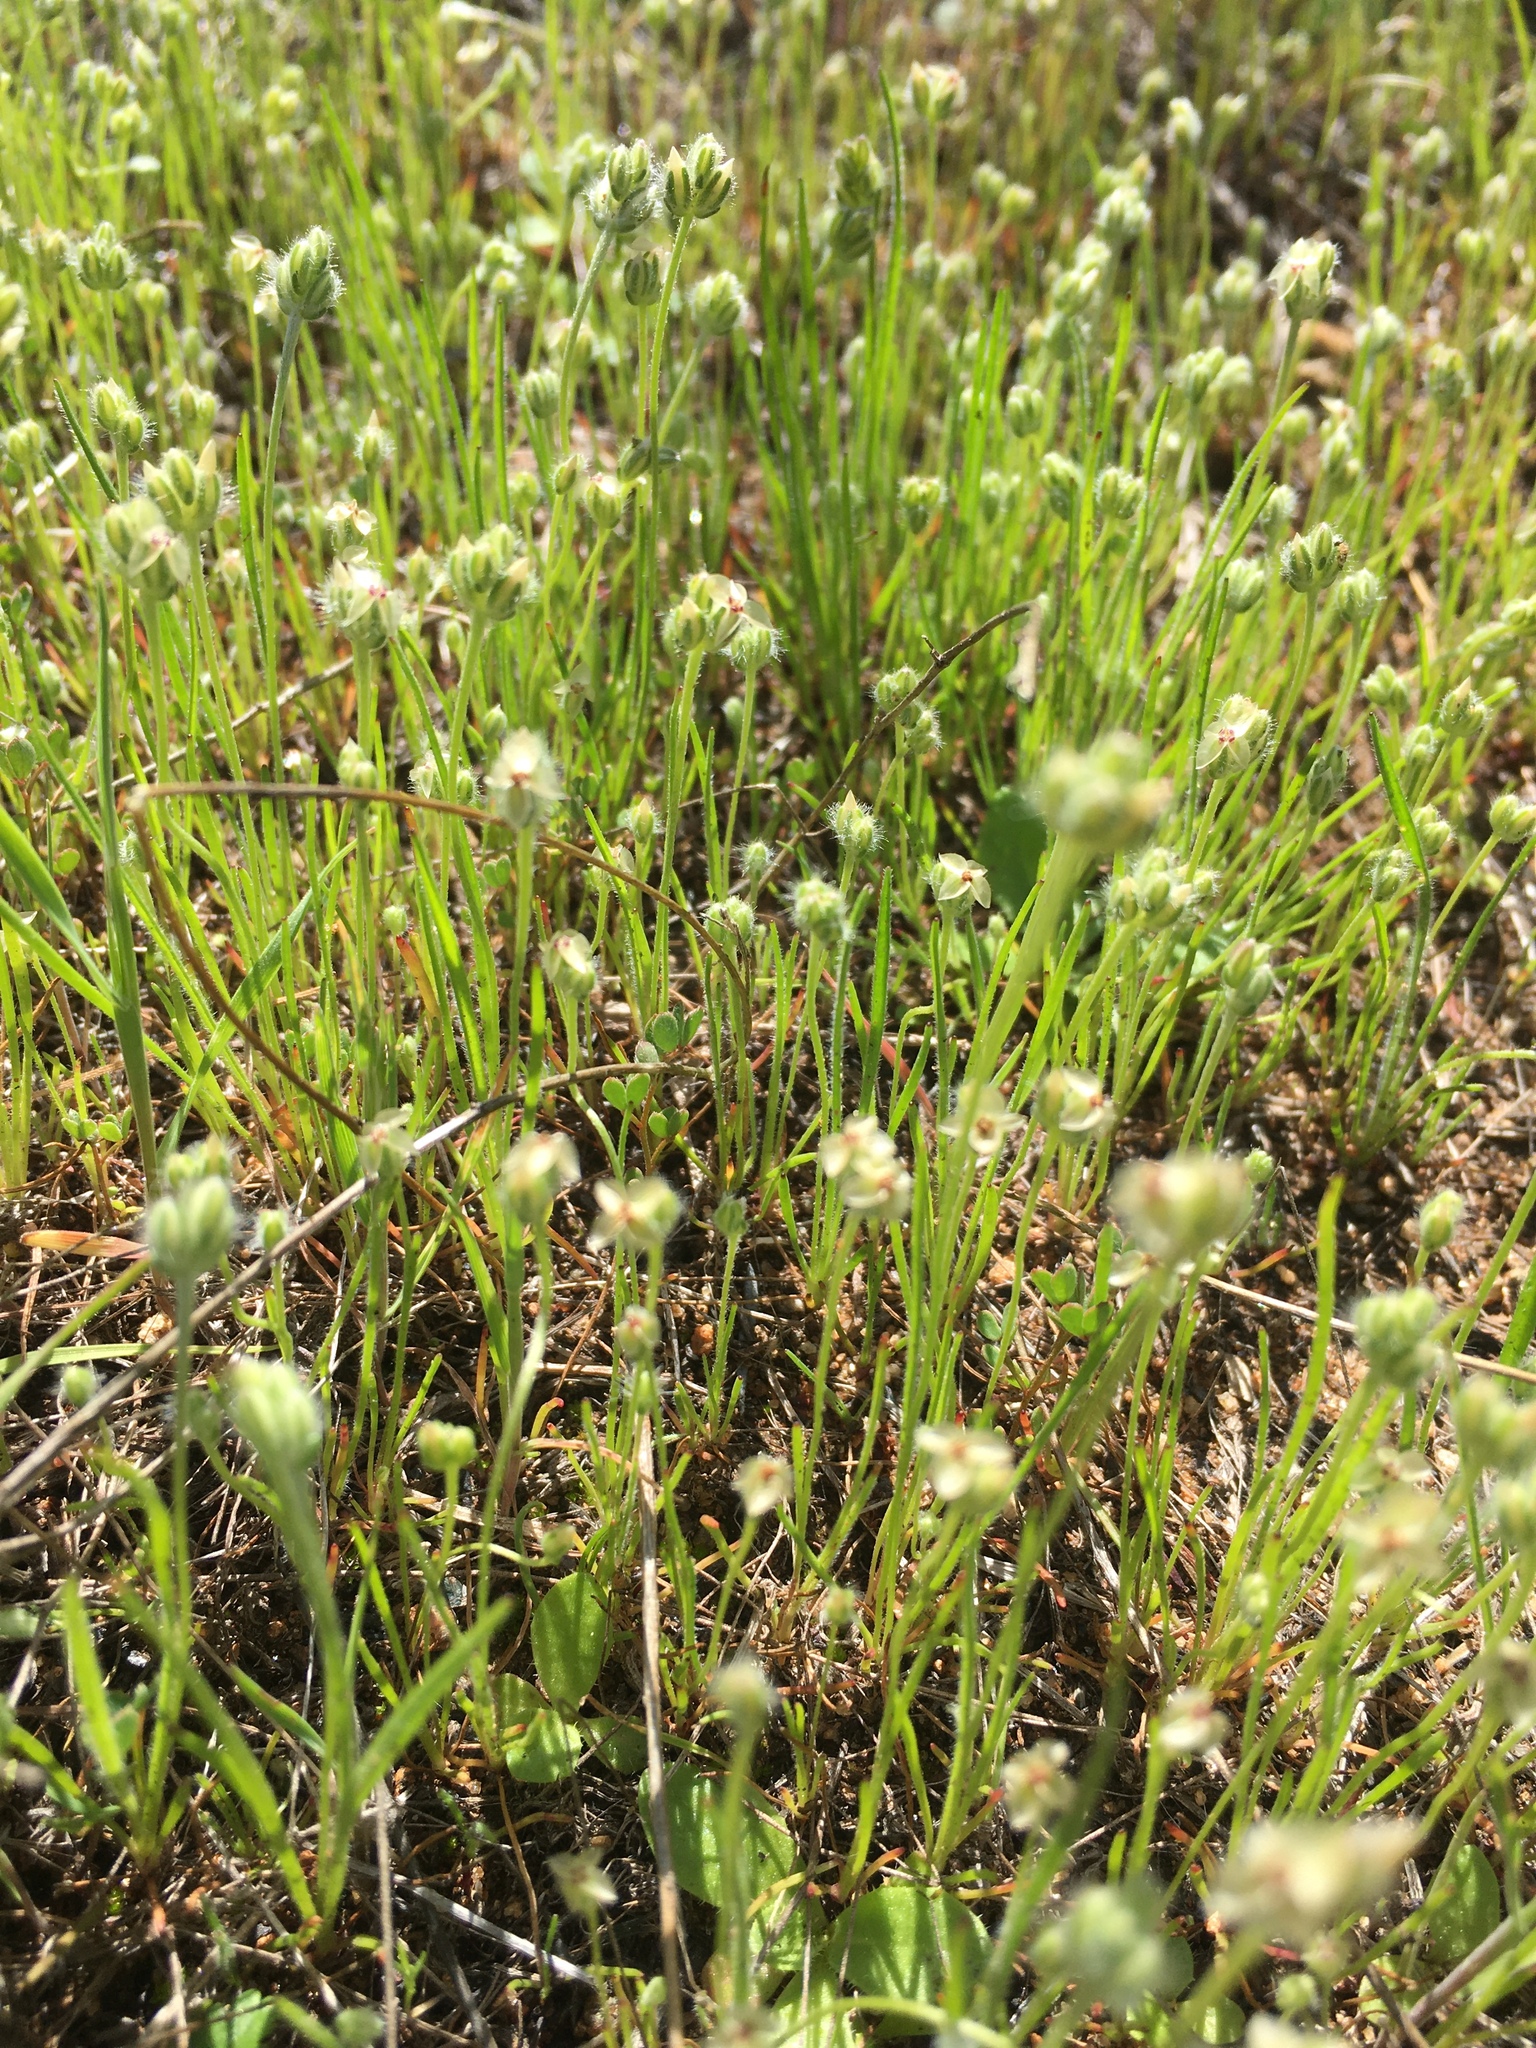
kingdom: Plantae
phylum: Tracheophyta
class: Magnoliopsida
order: Lamiales
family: Plantaginaceae
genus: Plantago
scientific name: Plantago erecta
